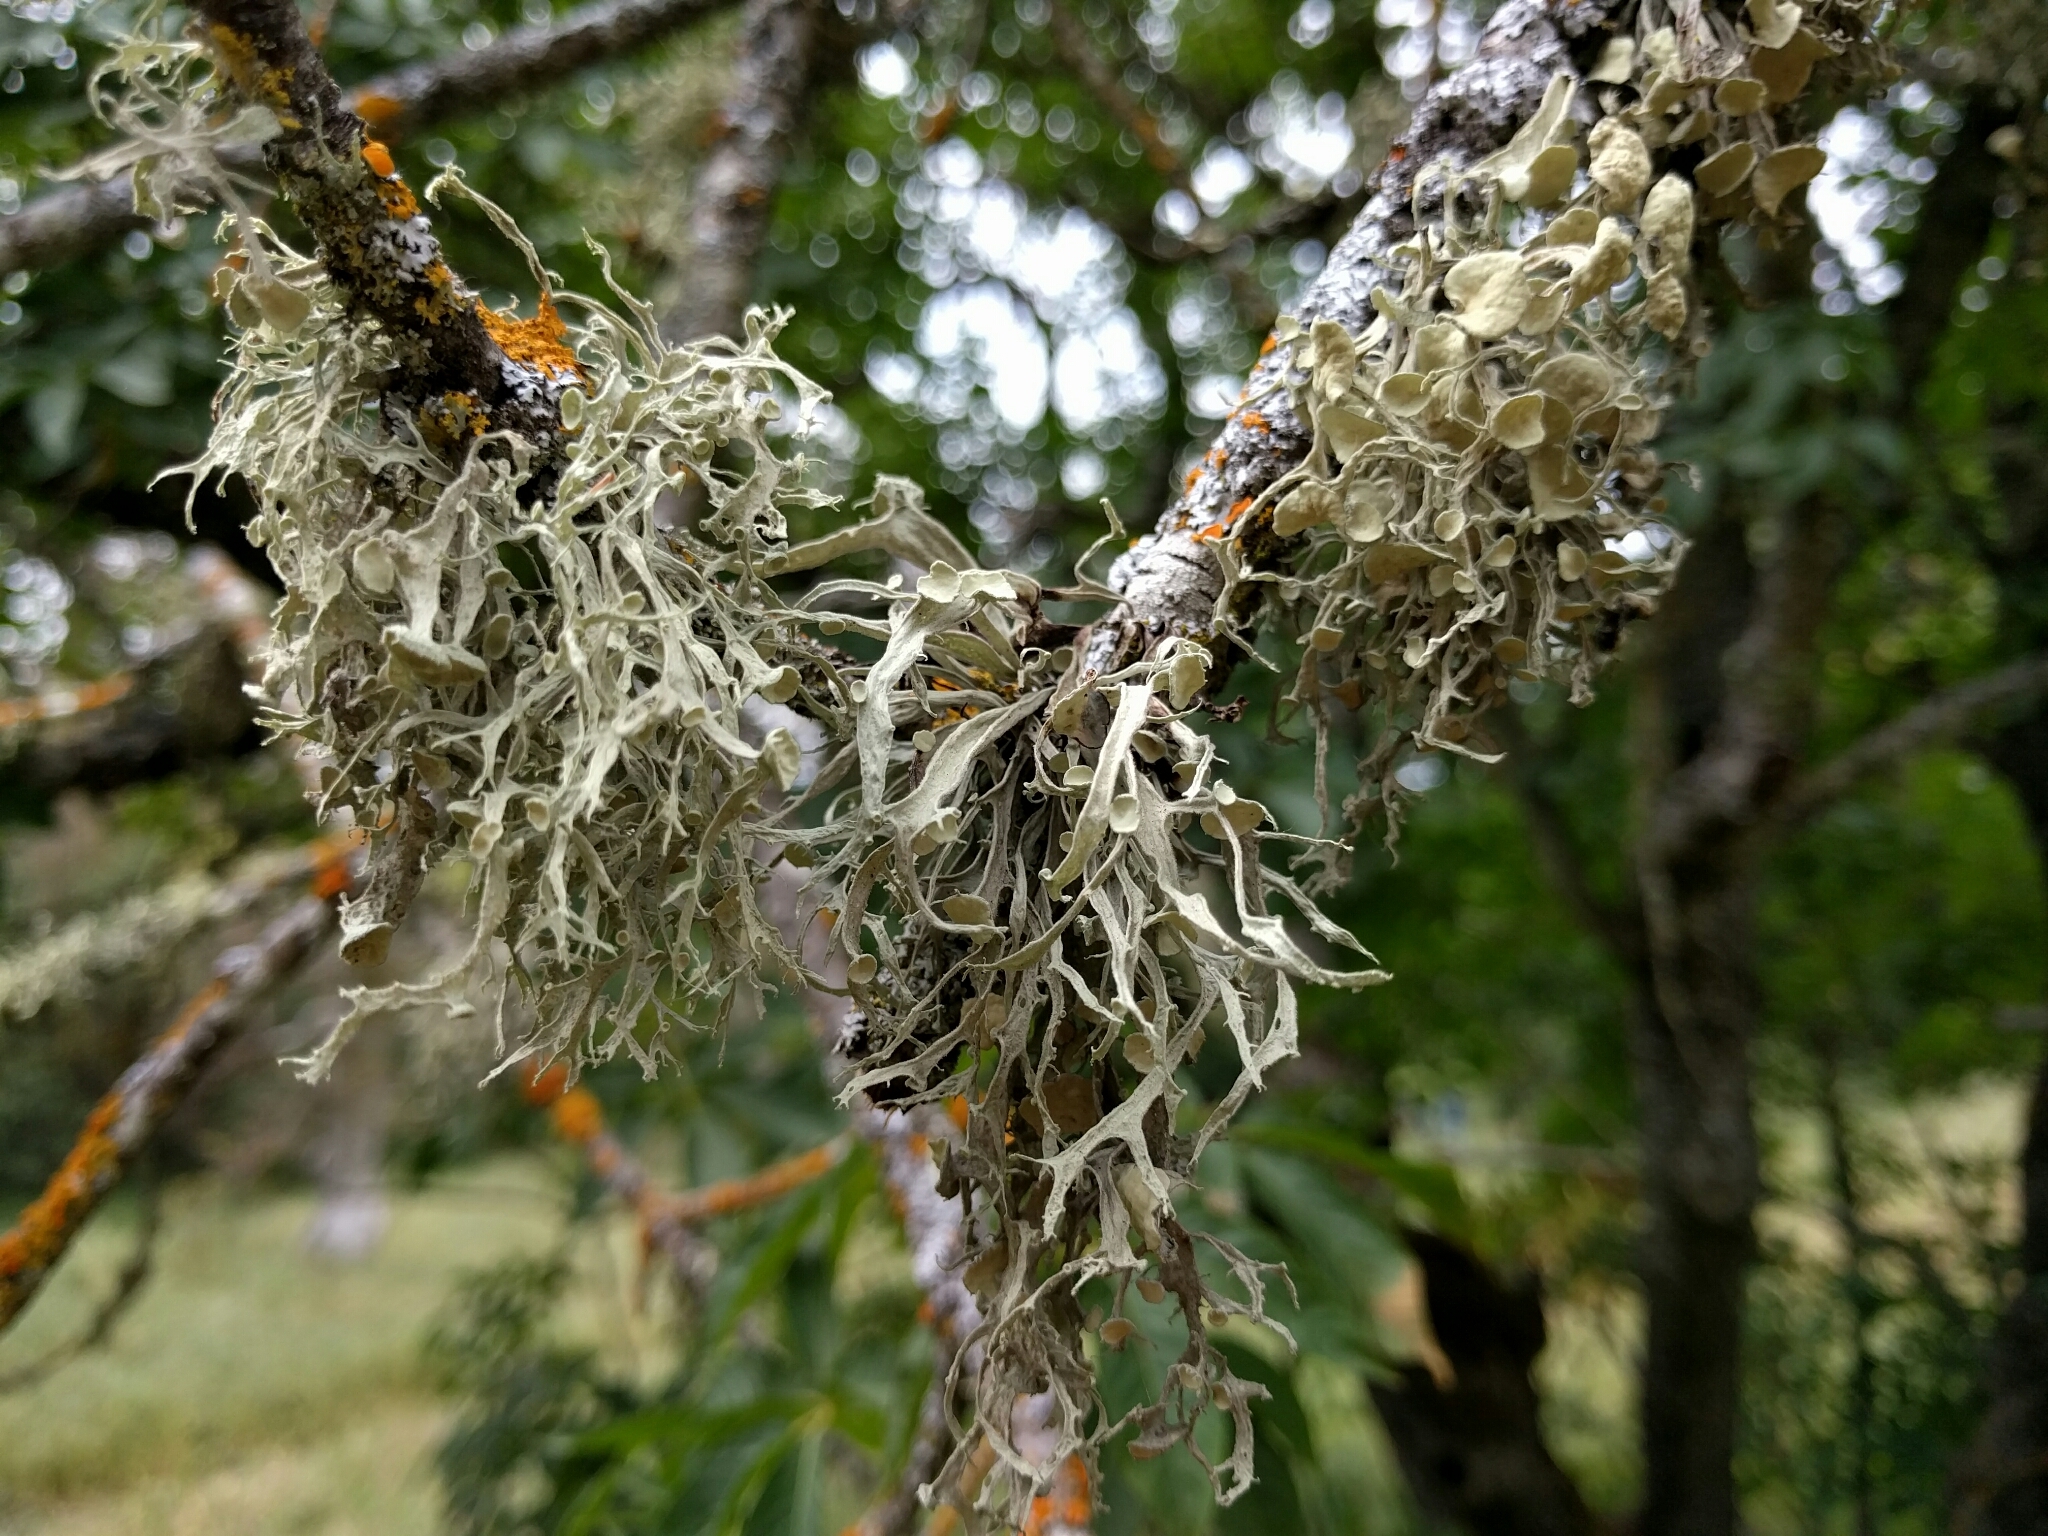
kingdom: Fungi
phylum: Ascomycota
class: Lecanoromycetes
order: Lecanorales
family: Ramalinaceae
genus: Ramalina
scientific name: Ramalina leptocarpha
